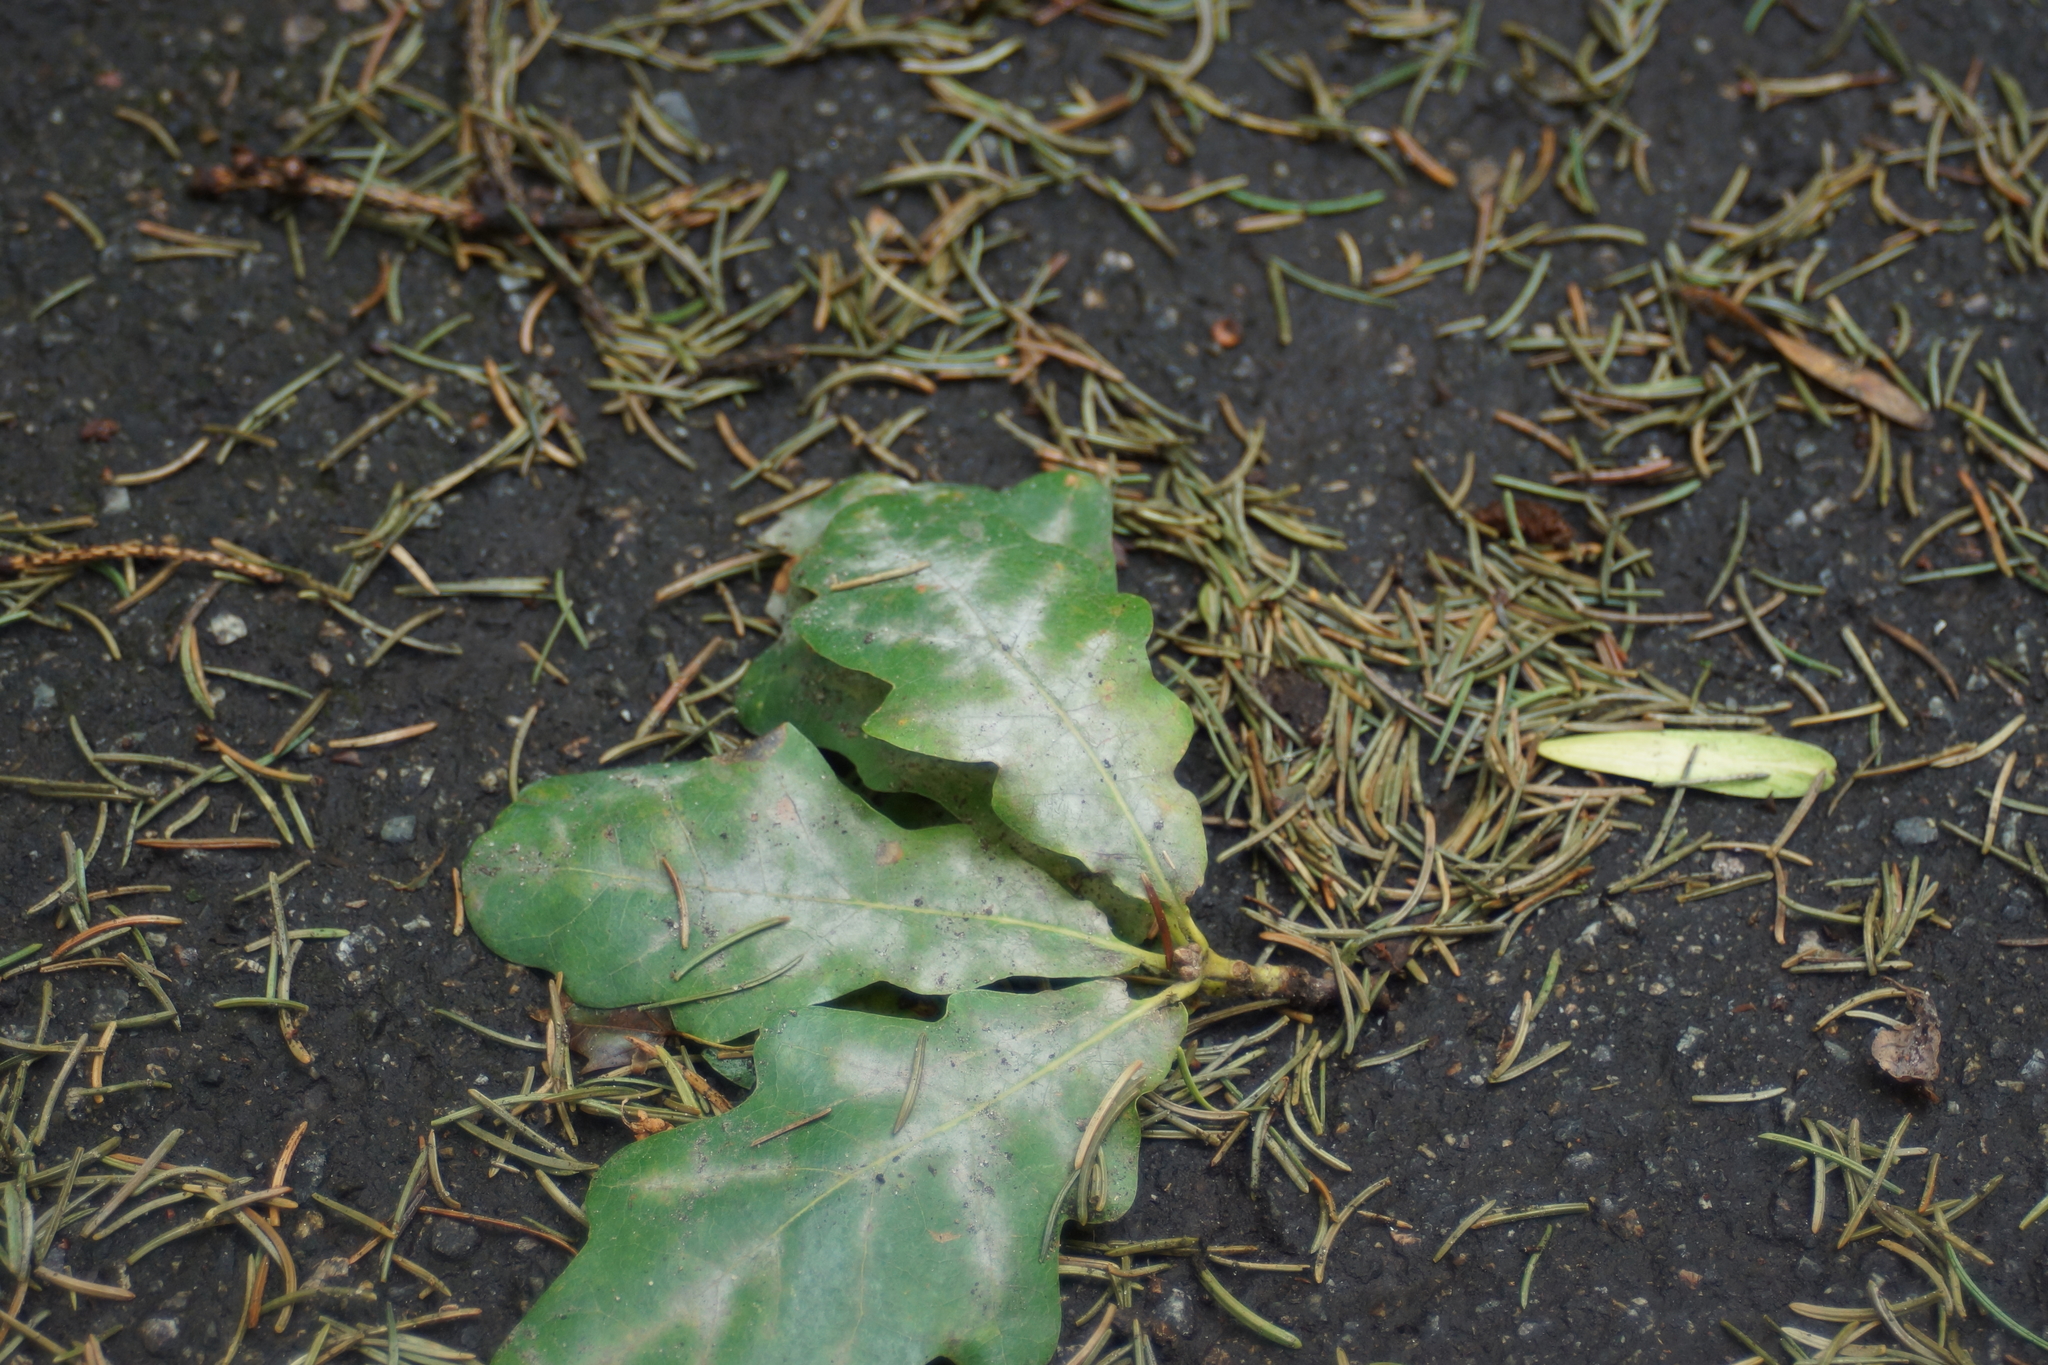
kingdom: Fungi
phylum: Ascomycota
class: Leotiomycetes
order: Helotiales
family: Erysiphaceae
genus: Erysiphe
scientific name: Erysiphe alphitoides
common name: Oak mildew
